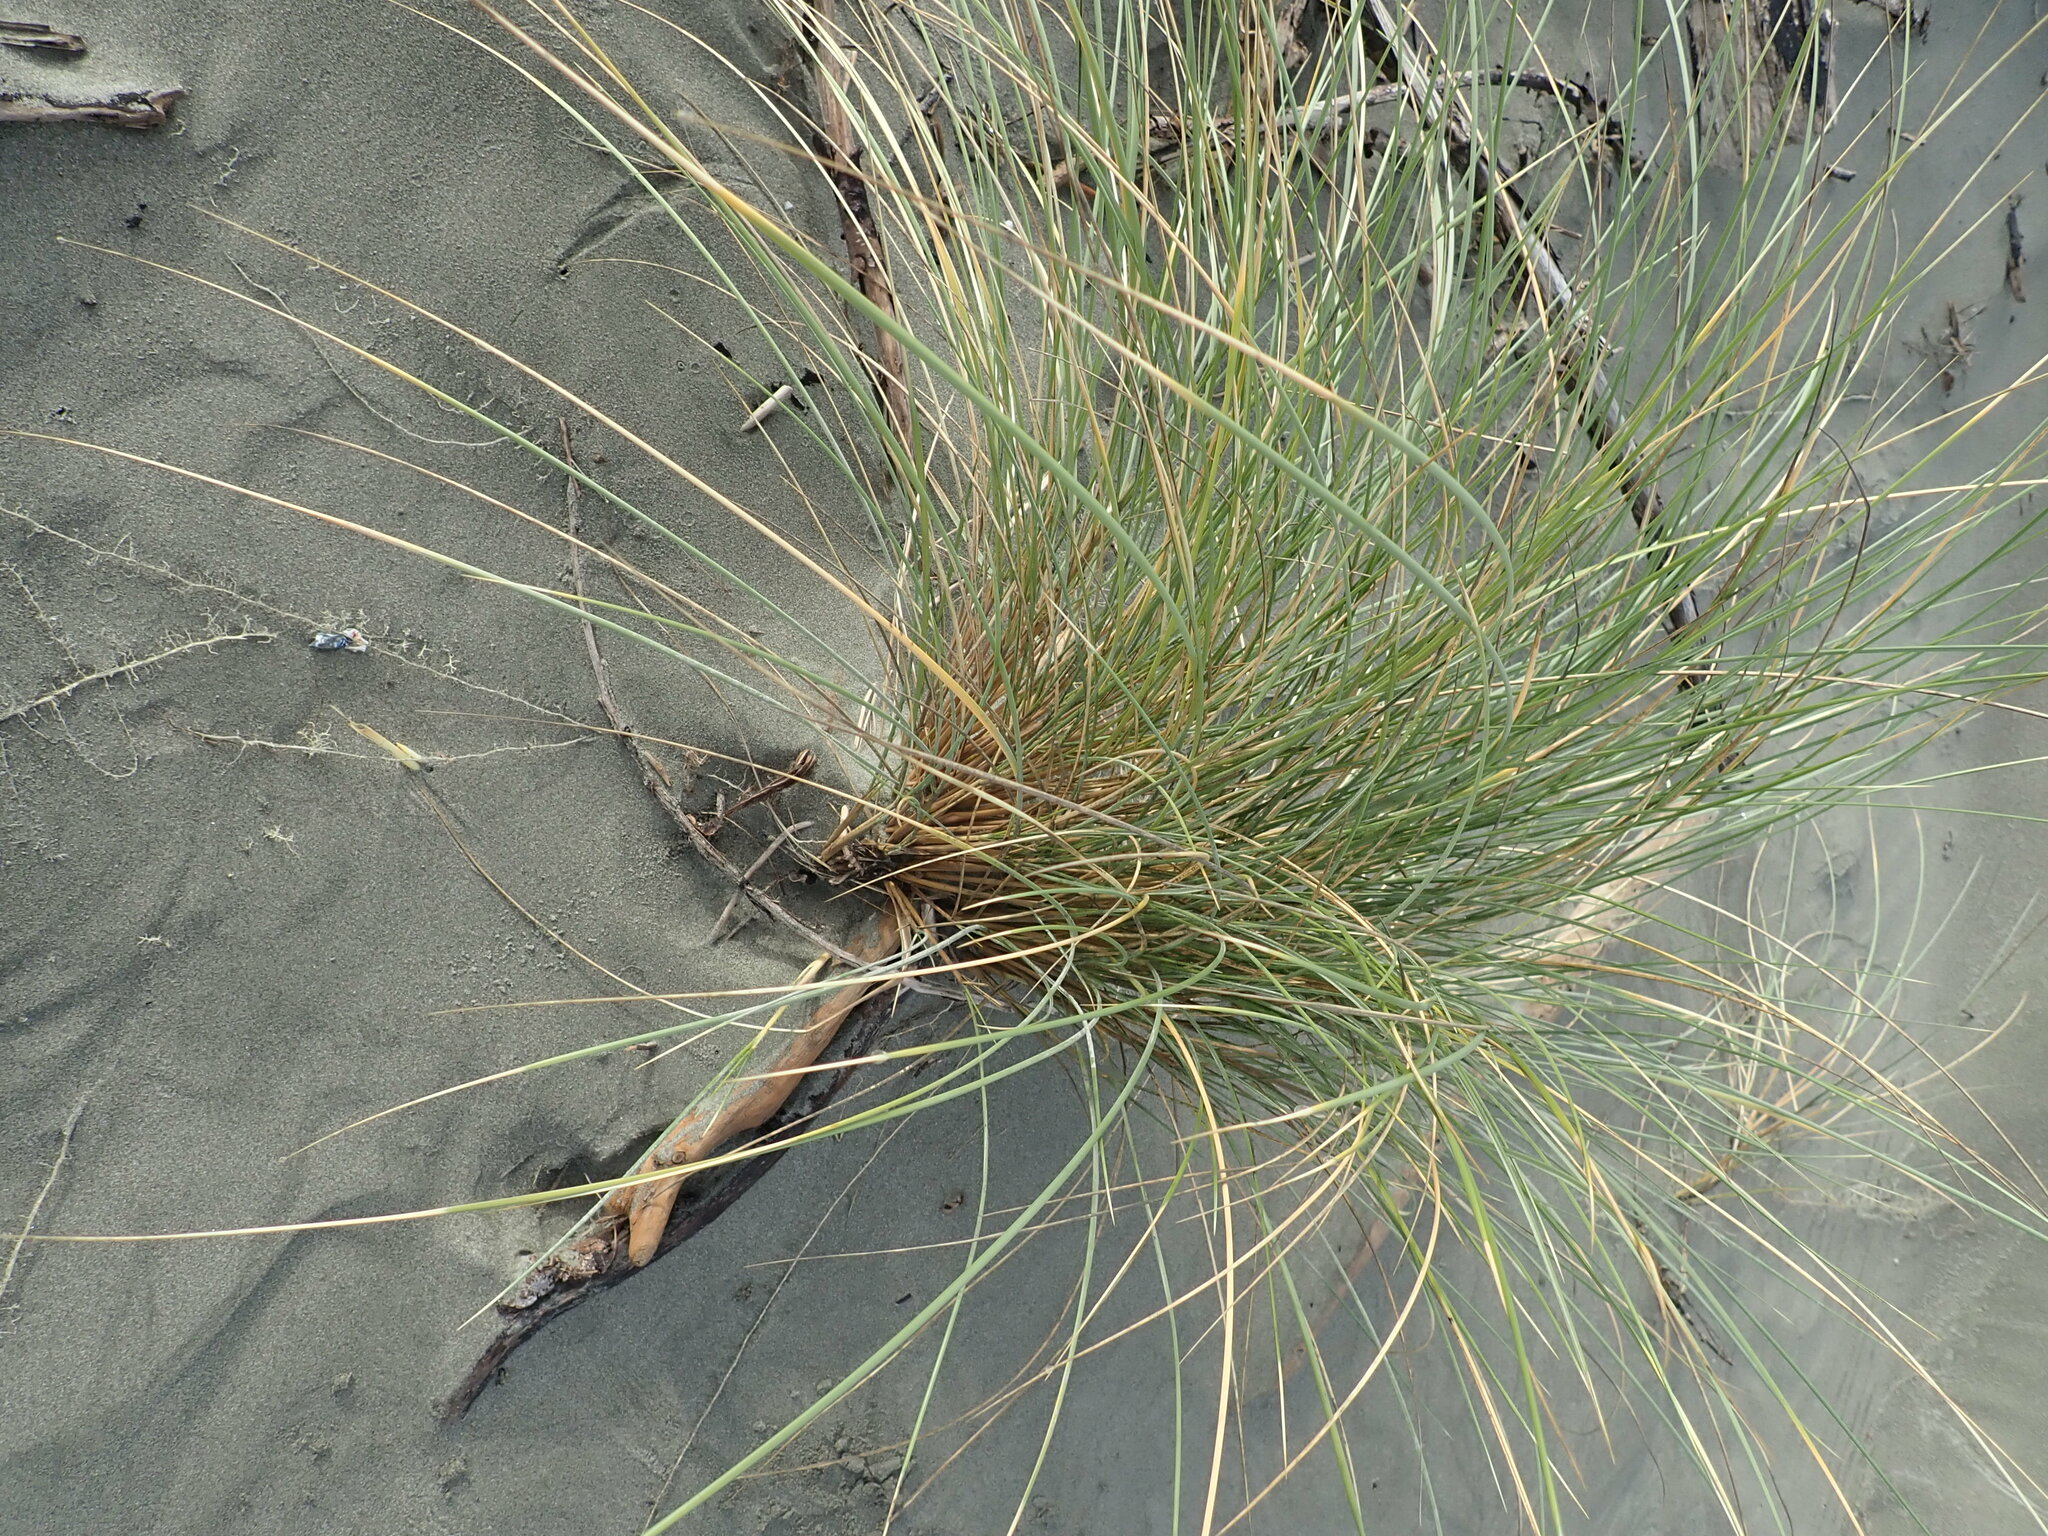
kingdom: Plantae
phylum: Tracheophyta
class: Liliopsida
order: Poales
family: Poaceae
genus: Calamagrostis
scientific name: Calamagrostis arenaria
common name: European beachgrass
